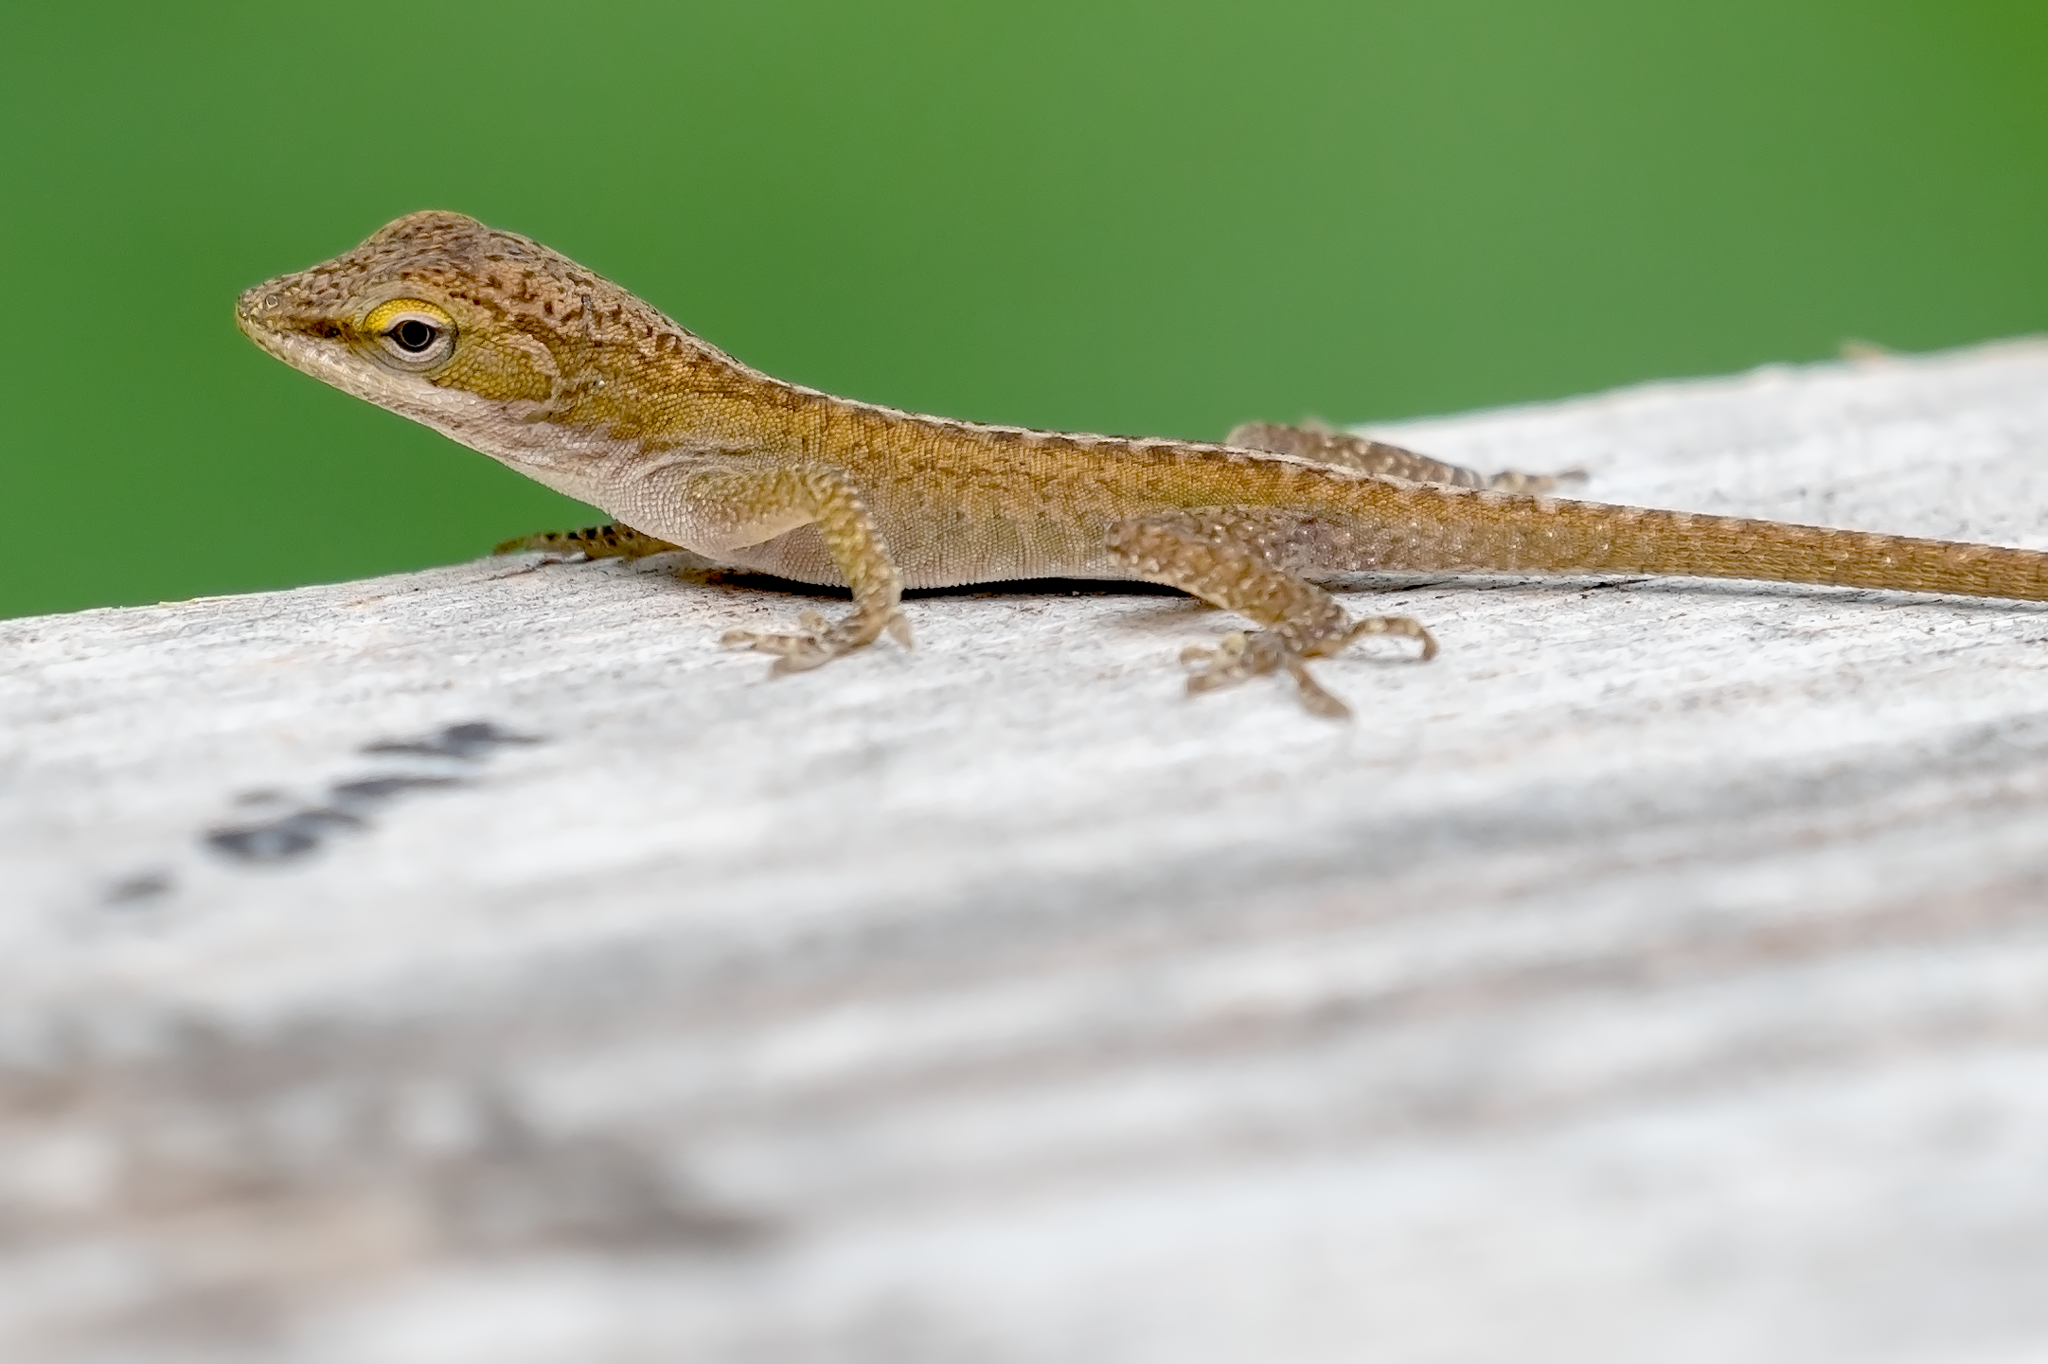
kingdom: Animalia
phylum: Chordata
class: Squamata
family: Dactyloidae
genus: Anolis
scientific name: Anolis carolinensis
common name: Green anole
